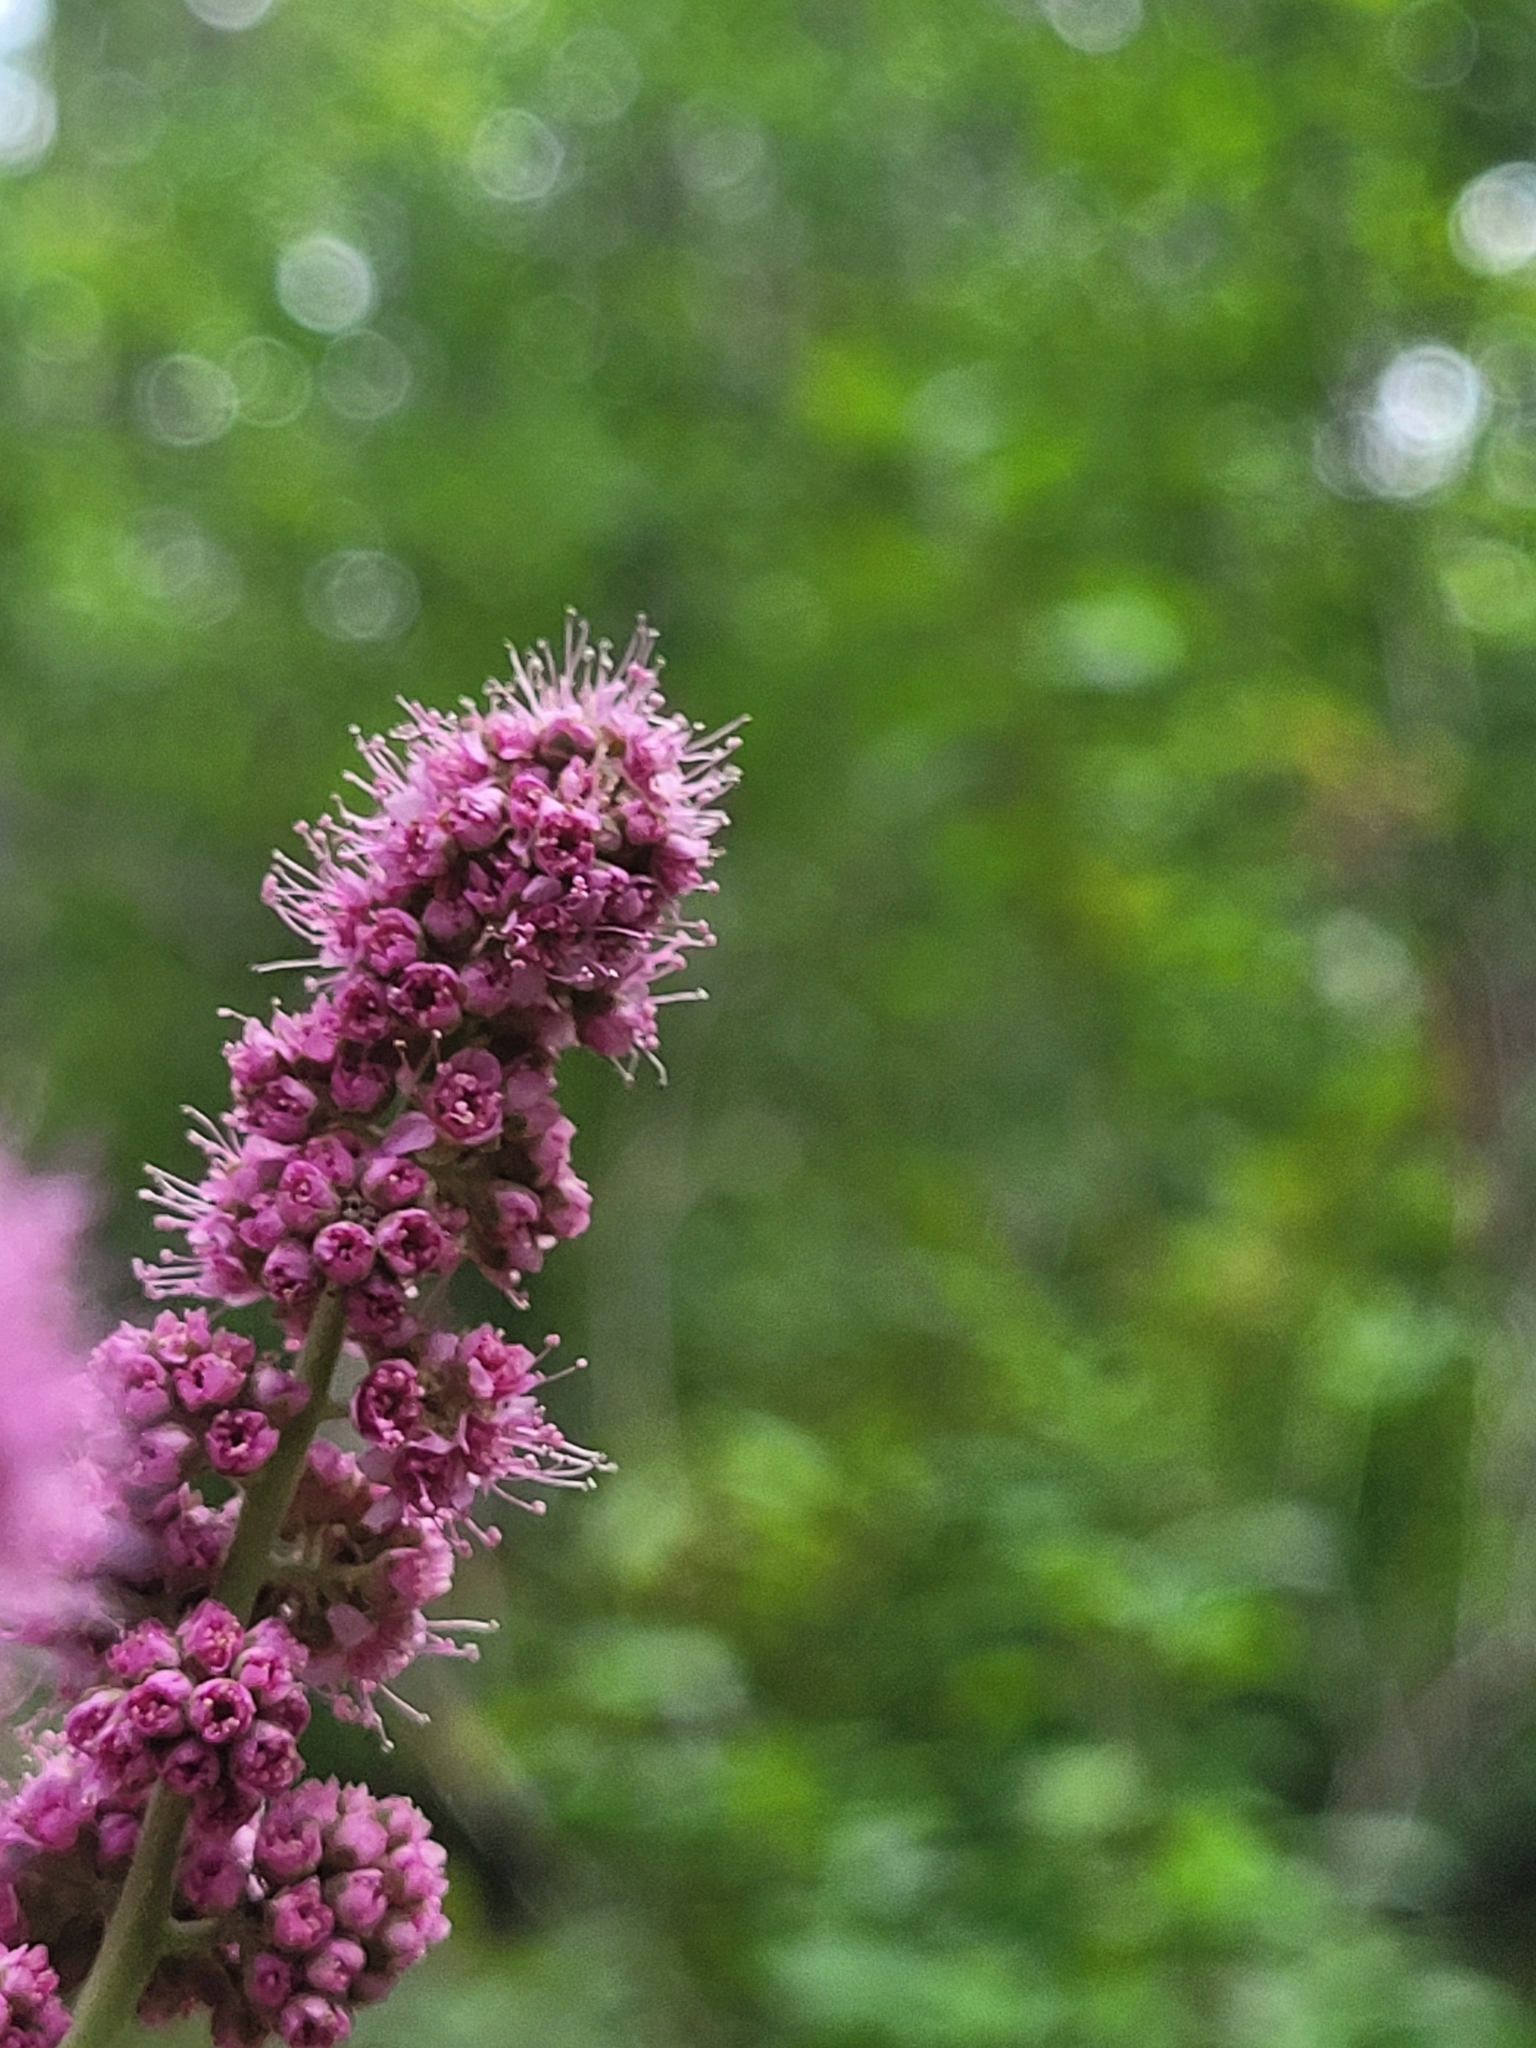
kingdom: Plantae
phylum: Tracheophyta
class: Magnoliopsida
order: Rosales
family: Rosaceae
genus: Spiraea
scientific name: Spiraea douglasii
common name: Steeplebush
